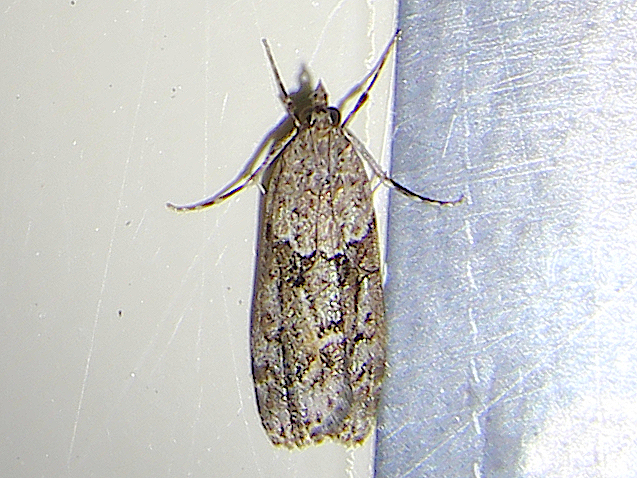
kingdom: Animalia
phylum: Arthropoda
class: Insecta
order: Lepidoptera
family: Crambidae
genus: Eudonia
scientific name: Eudonia submarginalis
